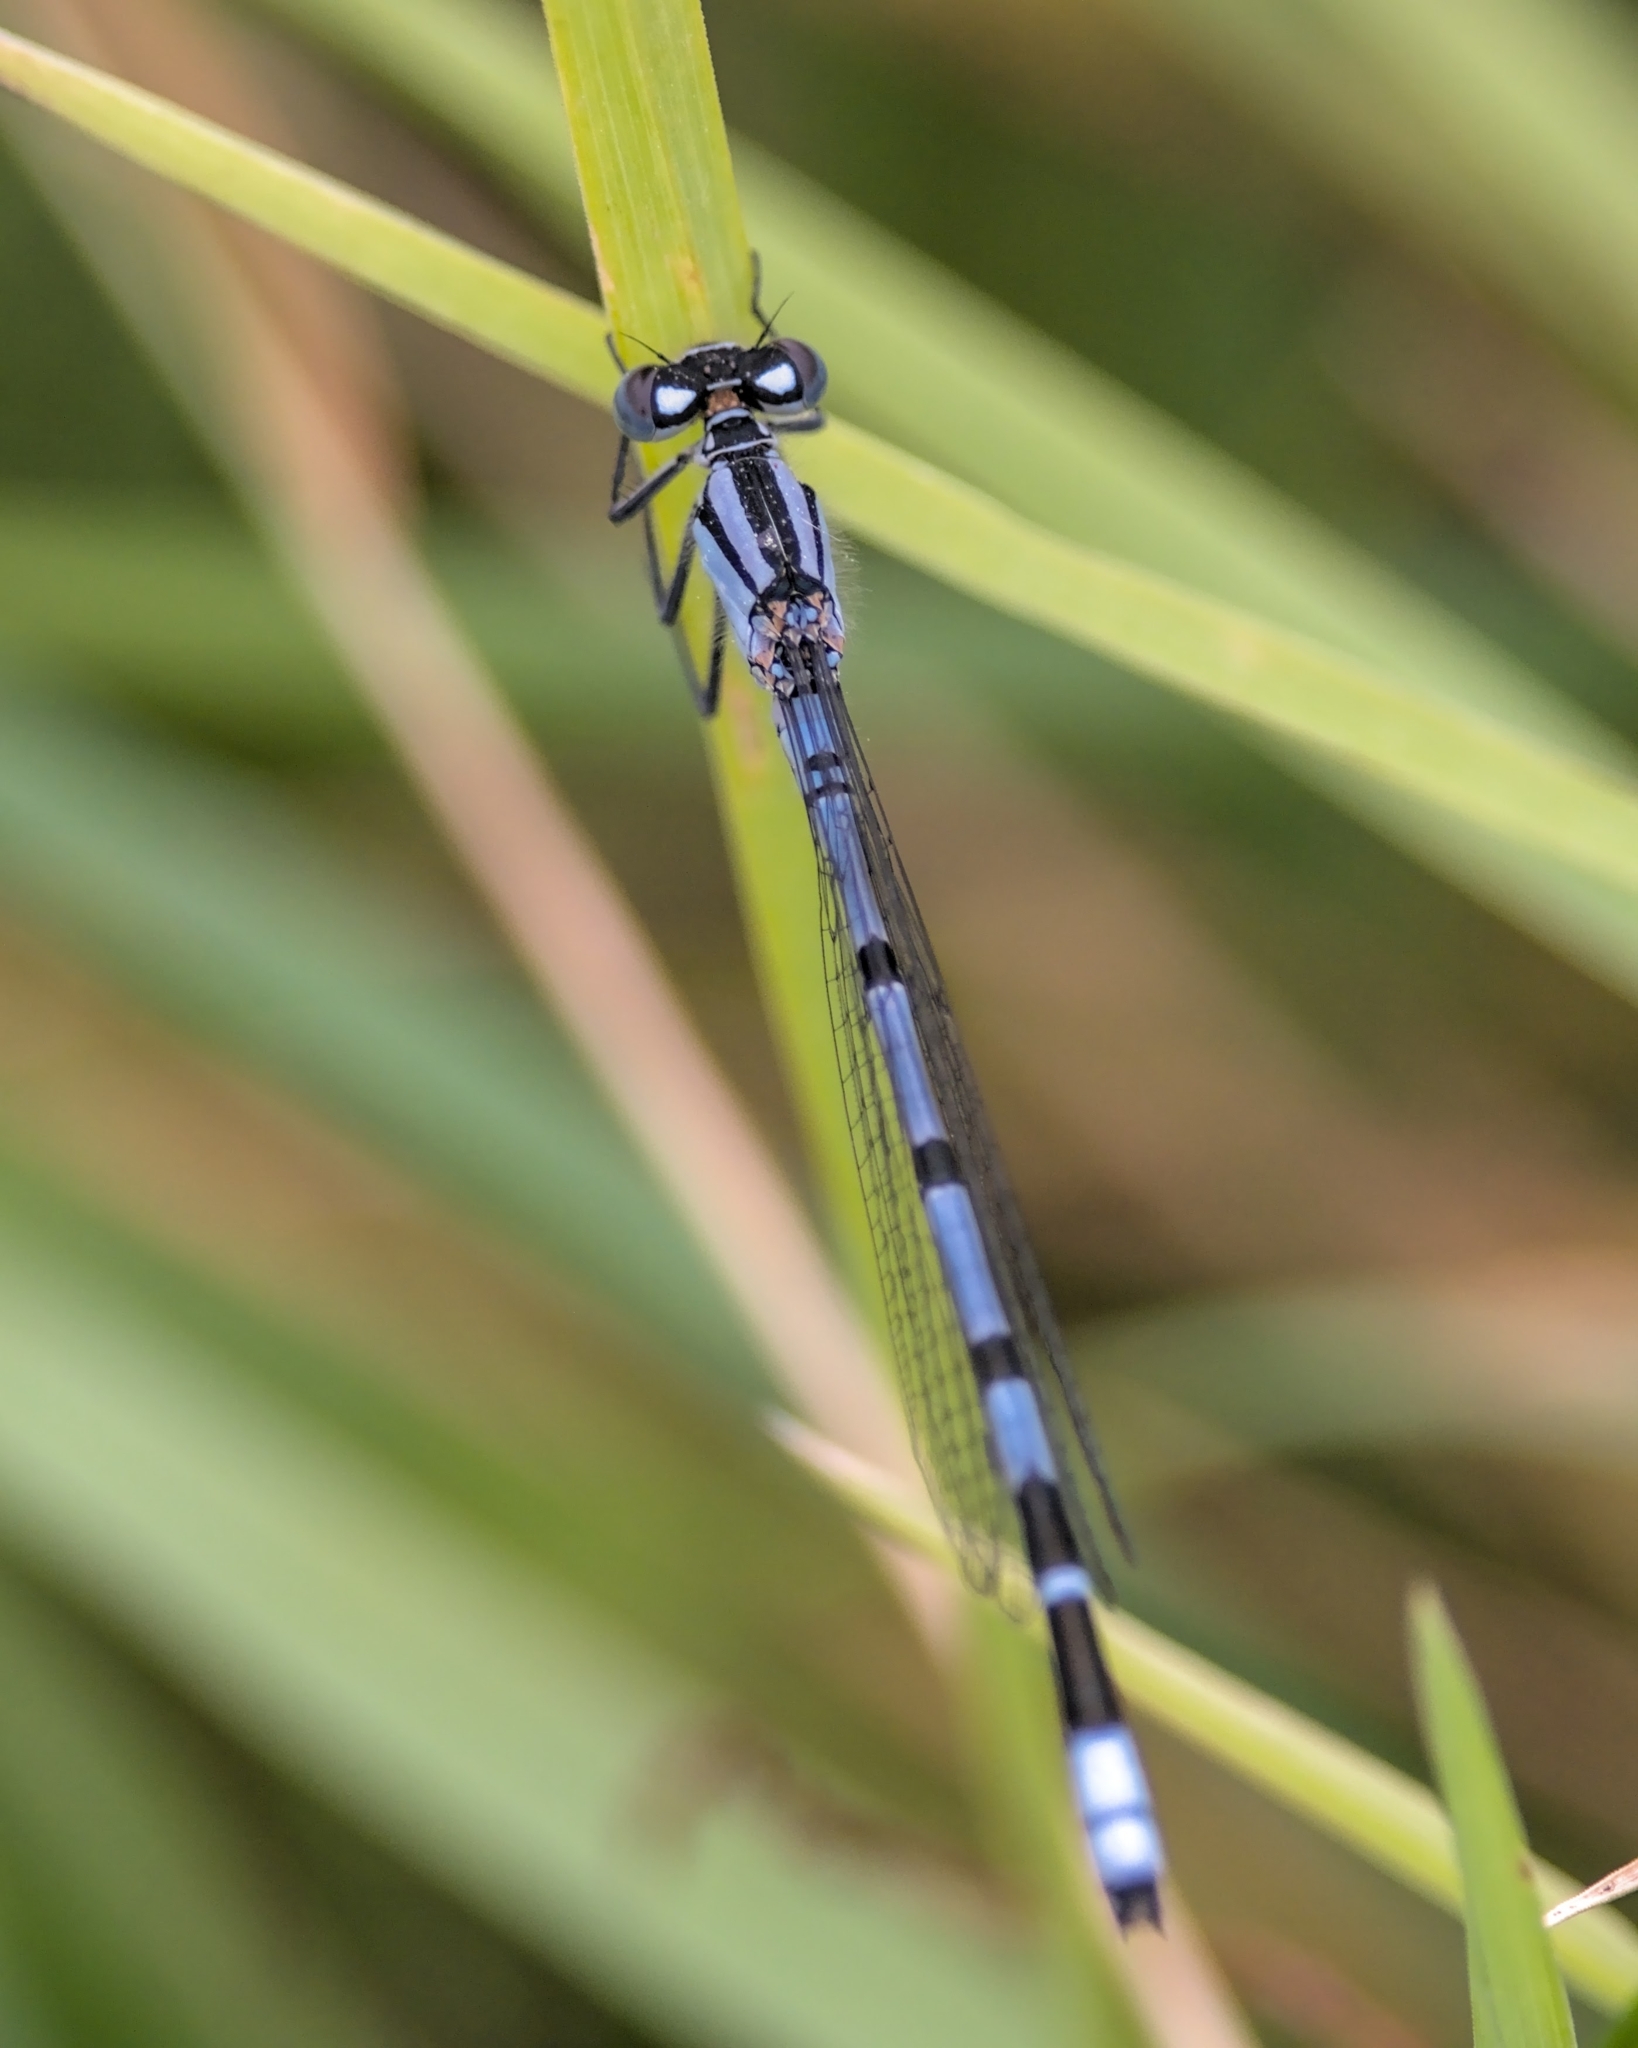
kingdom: Animalia
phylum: Arthropoda
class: Insecta
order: Odonata
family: Coenagrionidae
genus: Enallagma
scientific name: Enallagma cyathigerum
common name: Common blue damselfly
